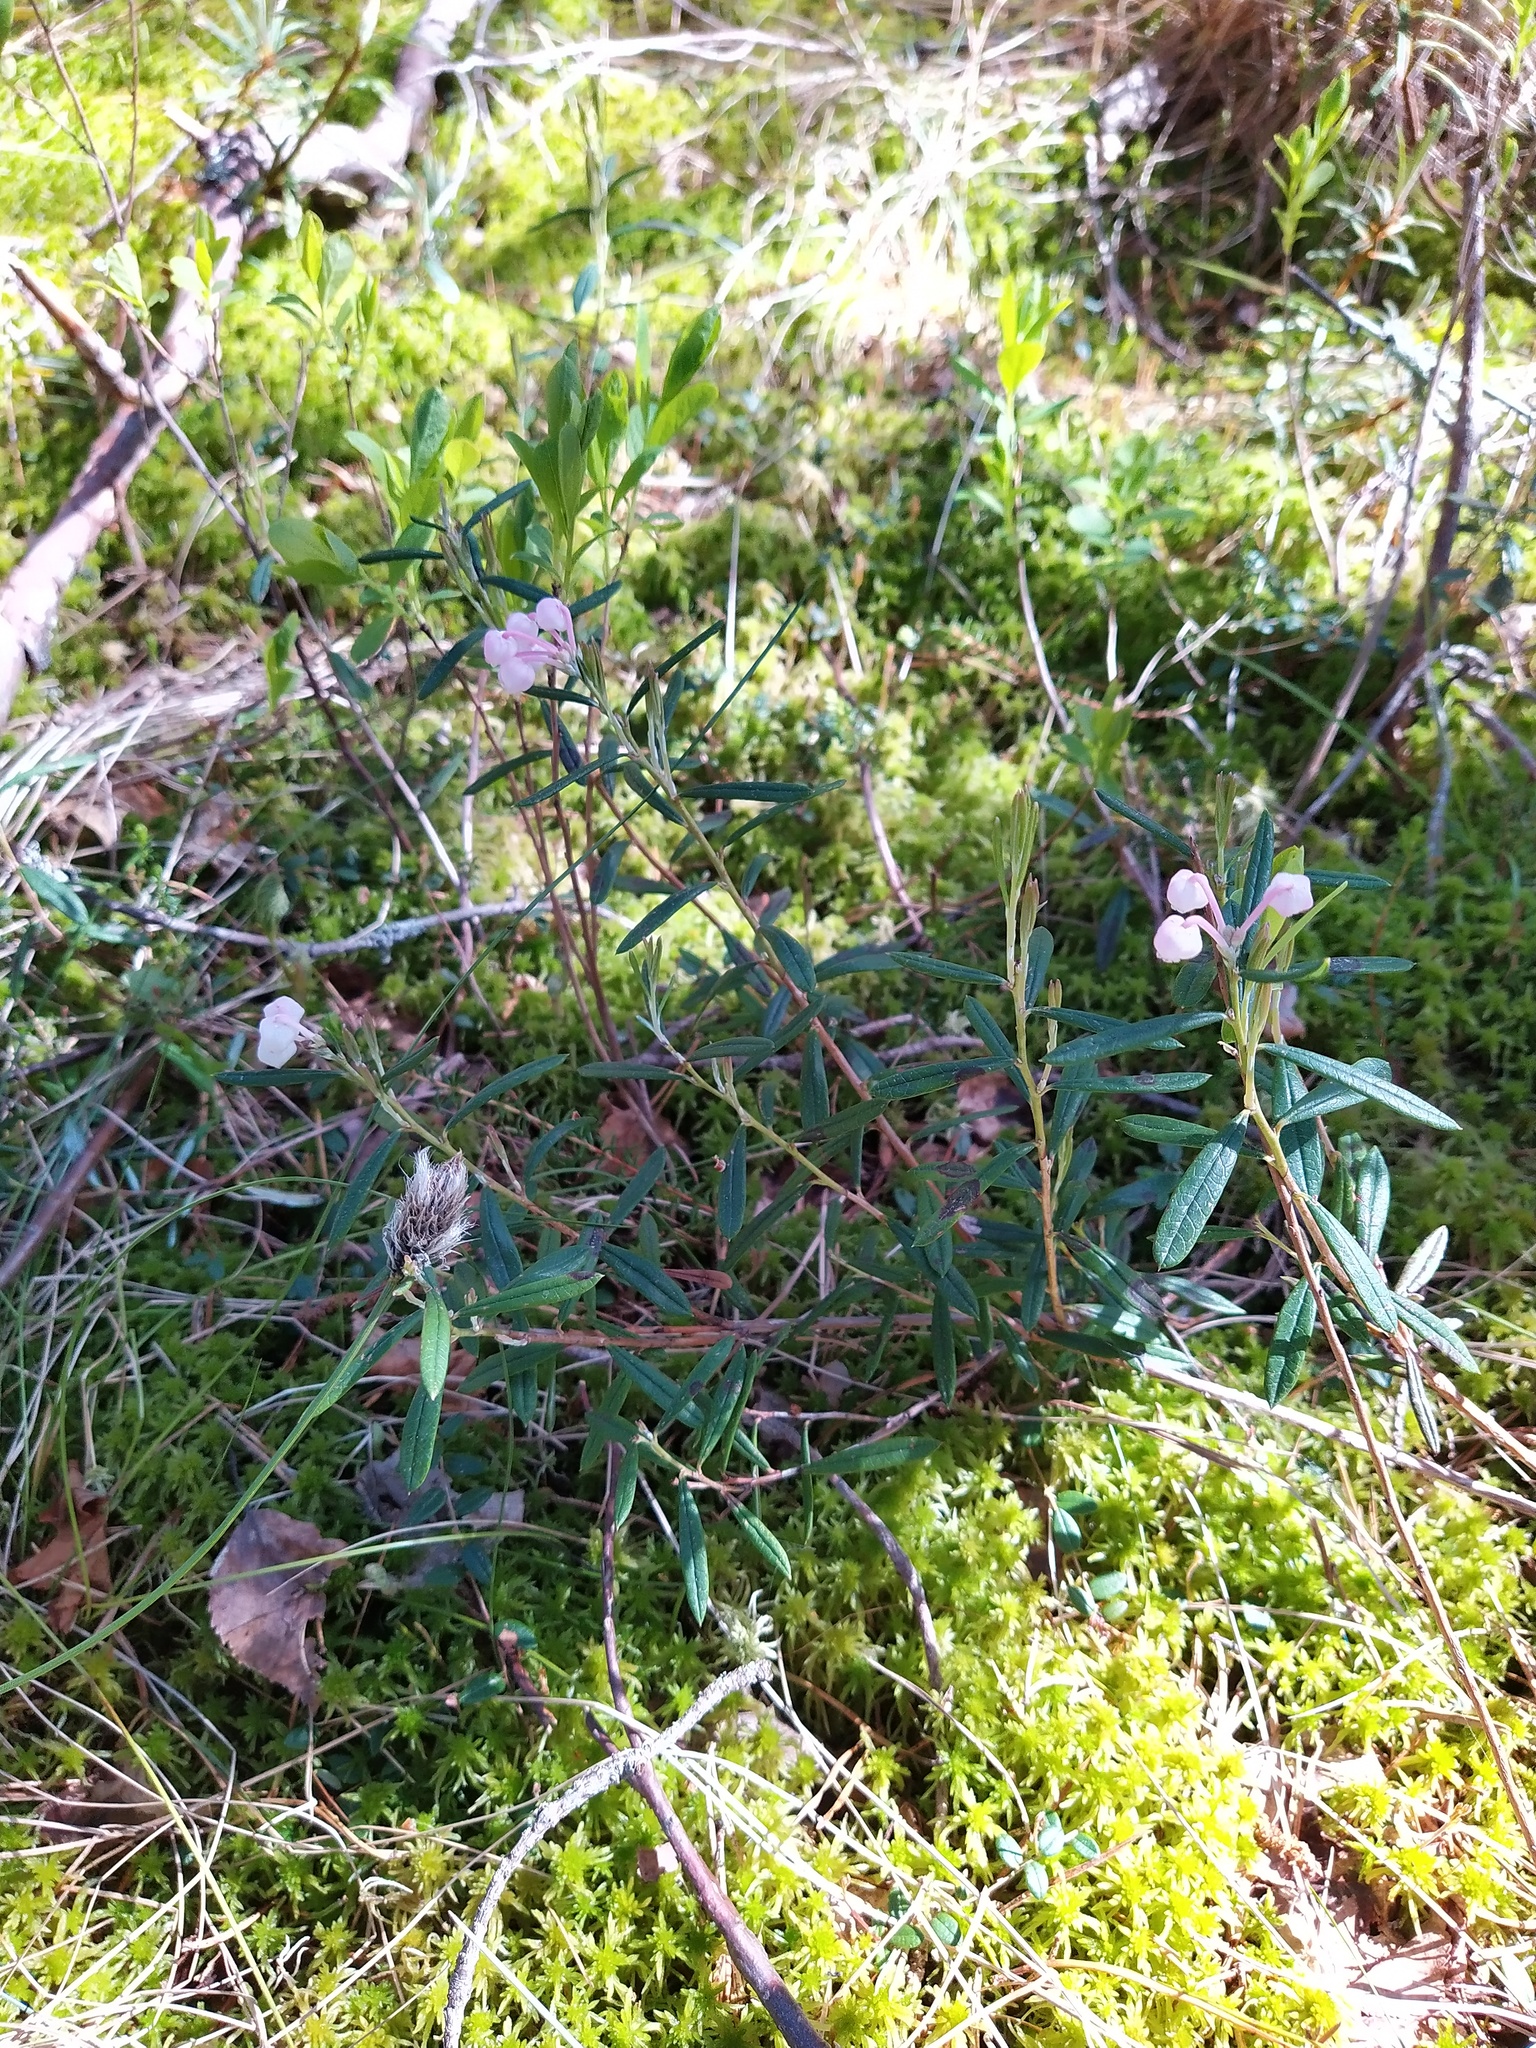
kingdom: Plantae
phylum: Tracheophyta
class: Magnoliopsida
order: Ericales
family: Ericaceae
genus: Andromeda
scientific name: Andromeda polifolia
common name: Bog-rosemary
